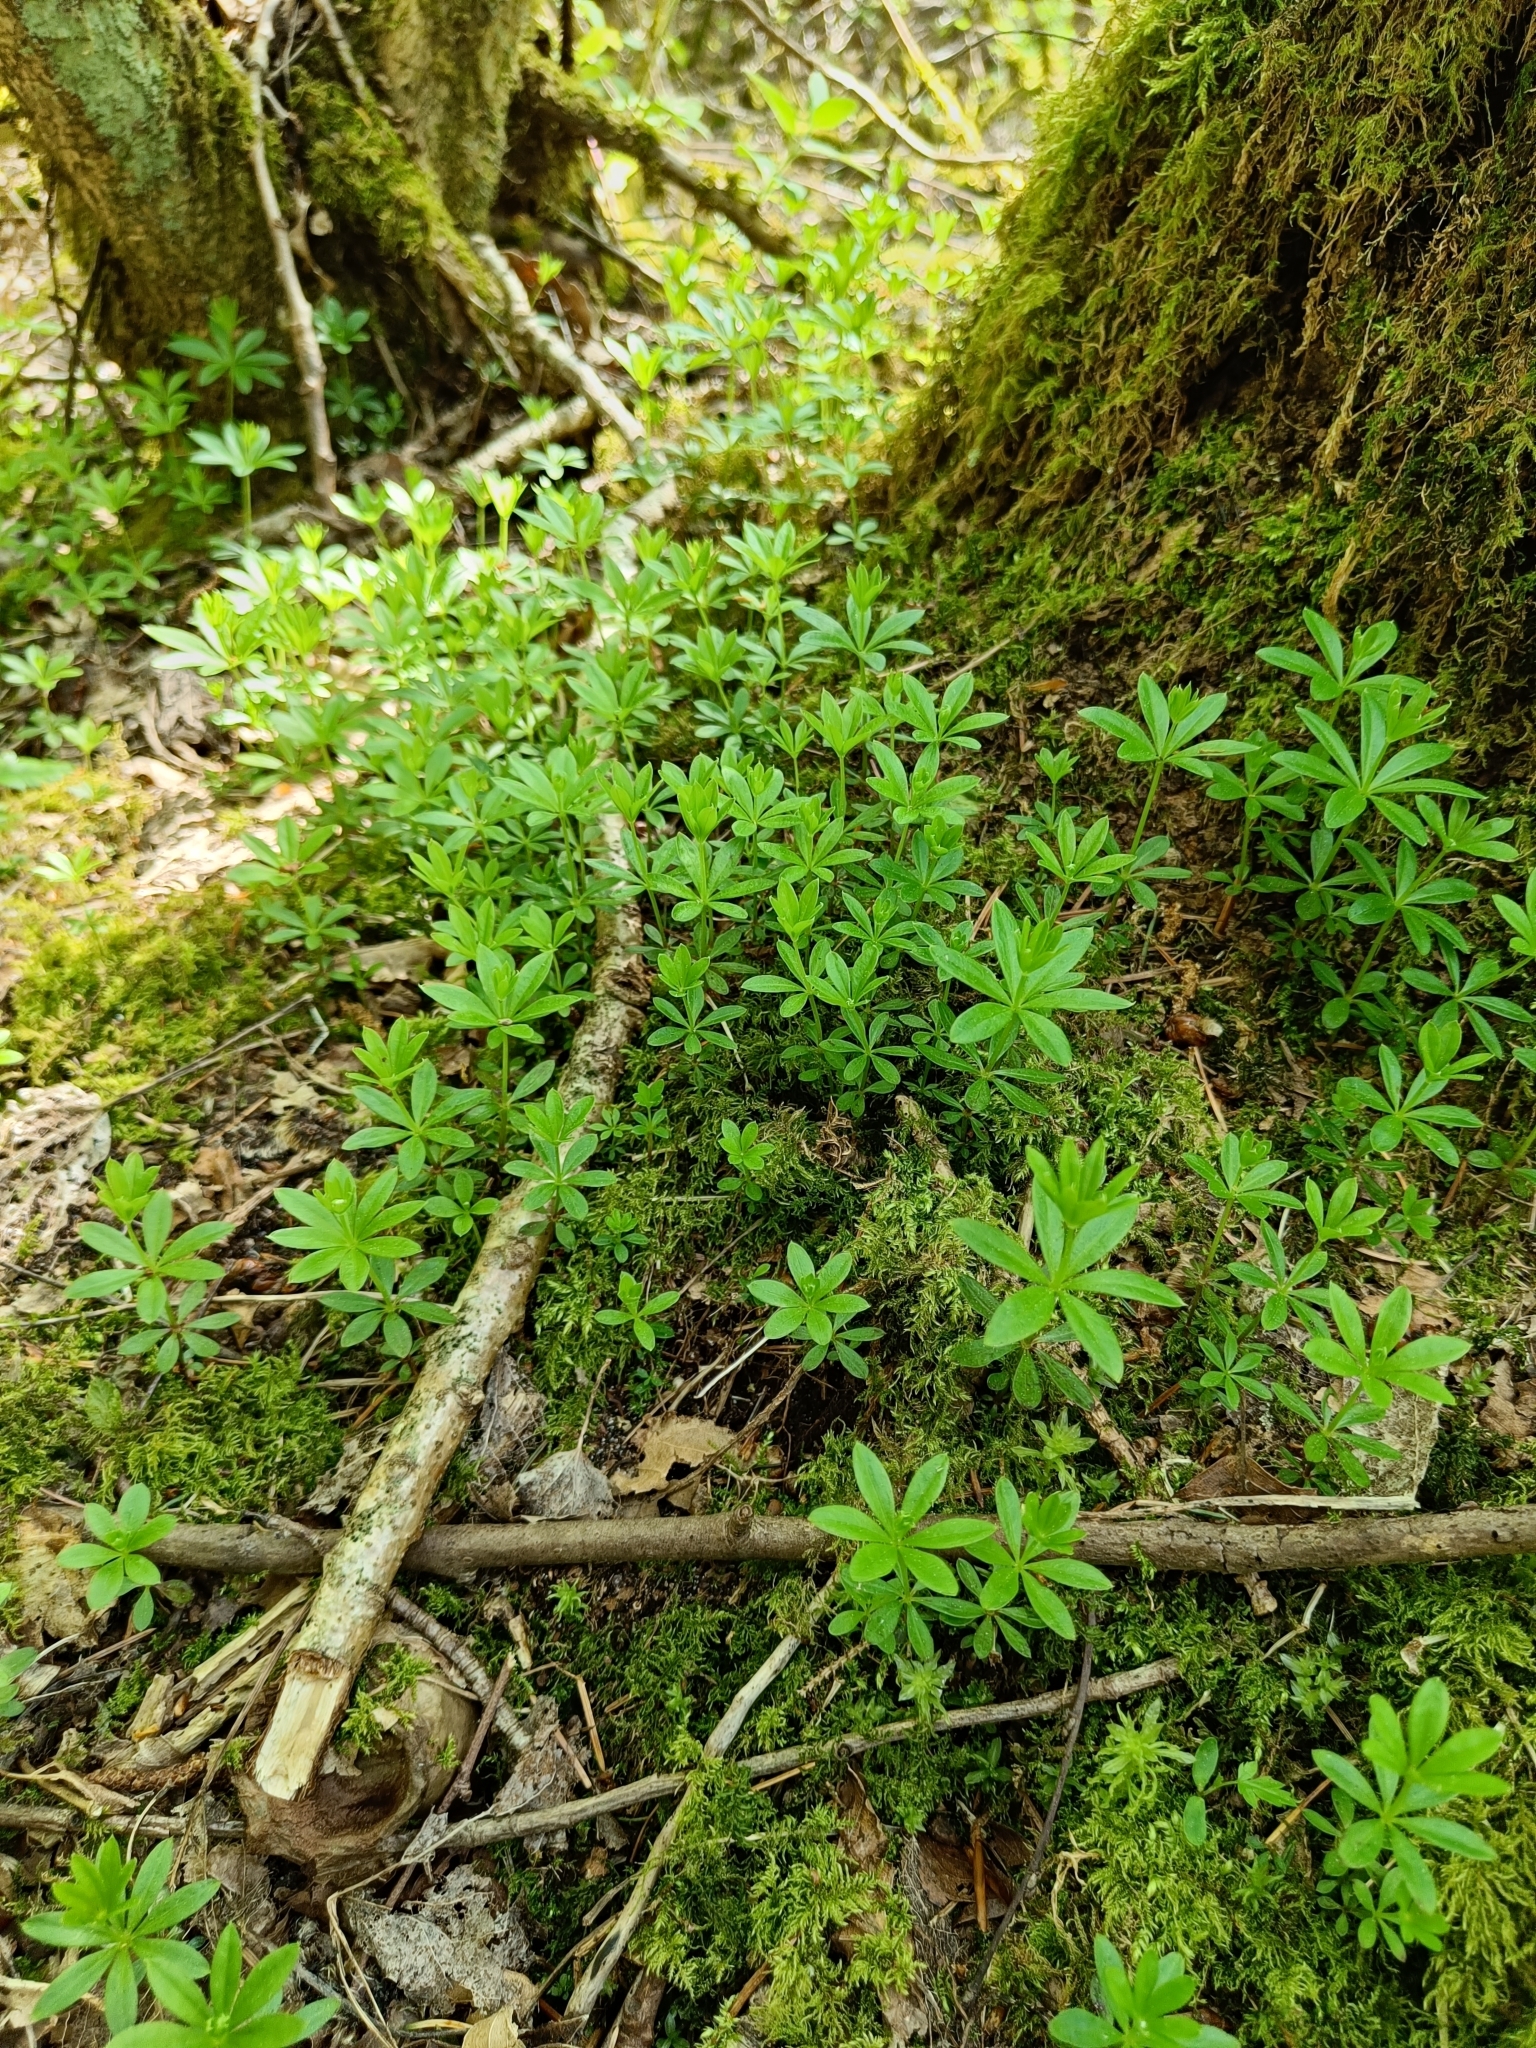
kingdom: Plantae
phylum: Tracheophyta
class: Magnoliopsida
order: Gentianales
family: Rubiaceae
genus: Galium
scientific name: Galium odoratum
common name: Sweet woodruff
